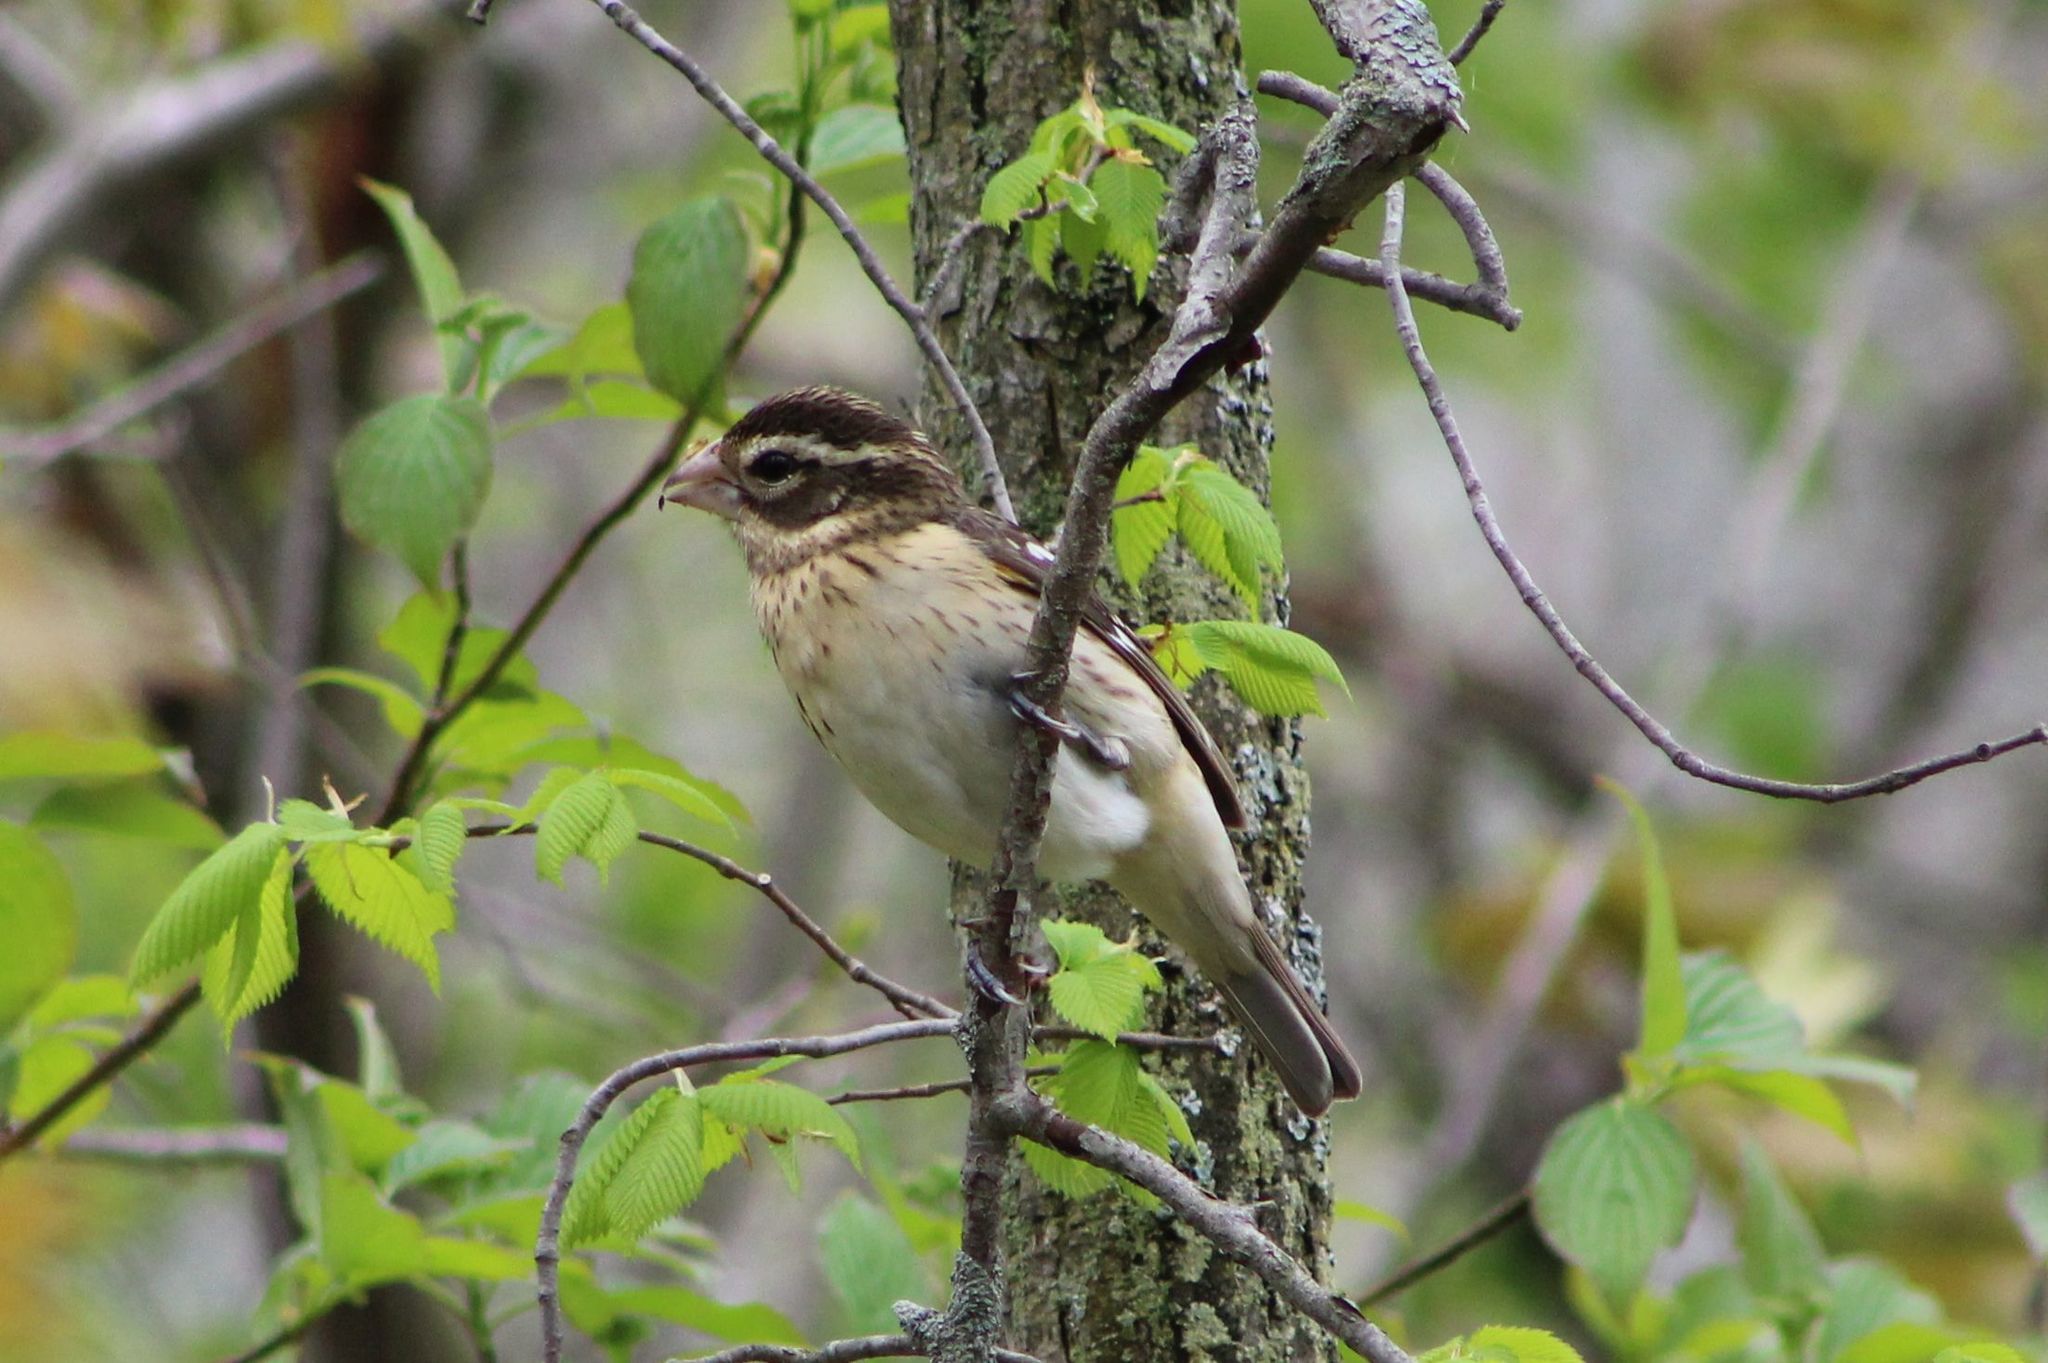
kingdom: Animalia
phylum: Chordata
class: Aves
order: Passeriformes
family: Cardinalidae
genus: Pheucticus
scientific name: Pheucticus ludovicianus
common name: Rose-breasted grosbeak
